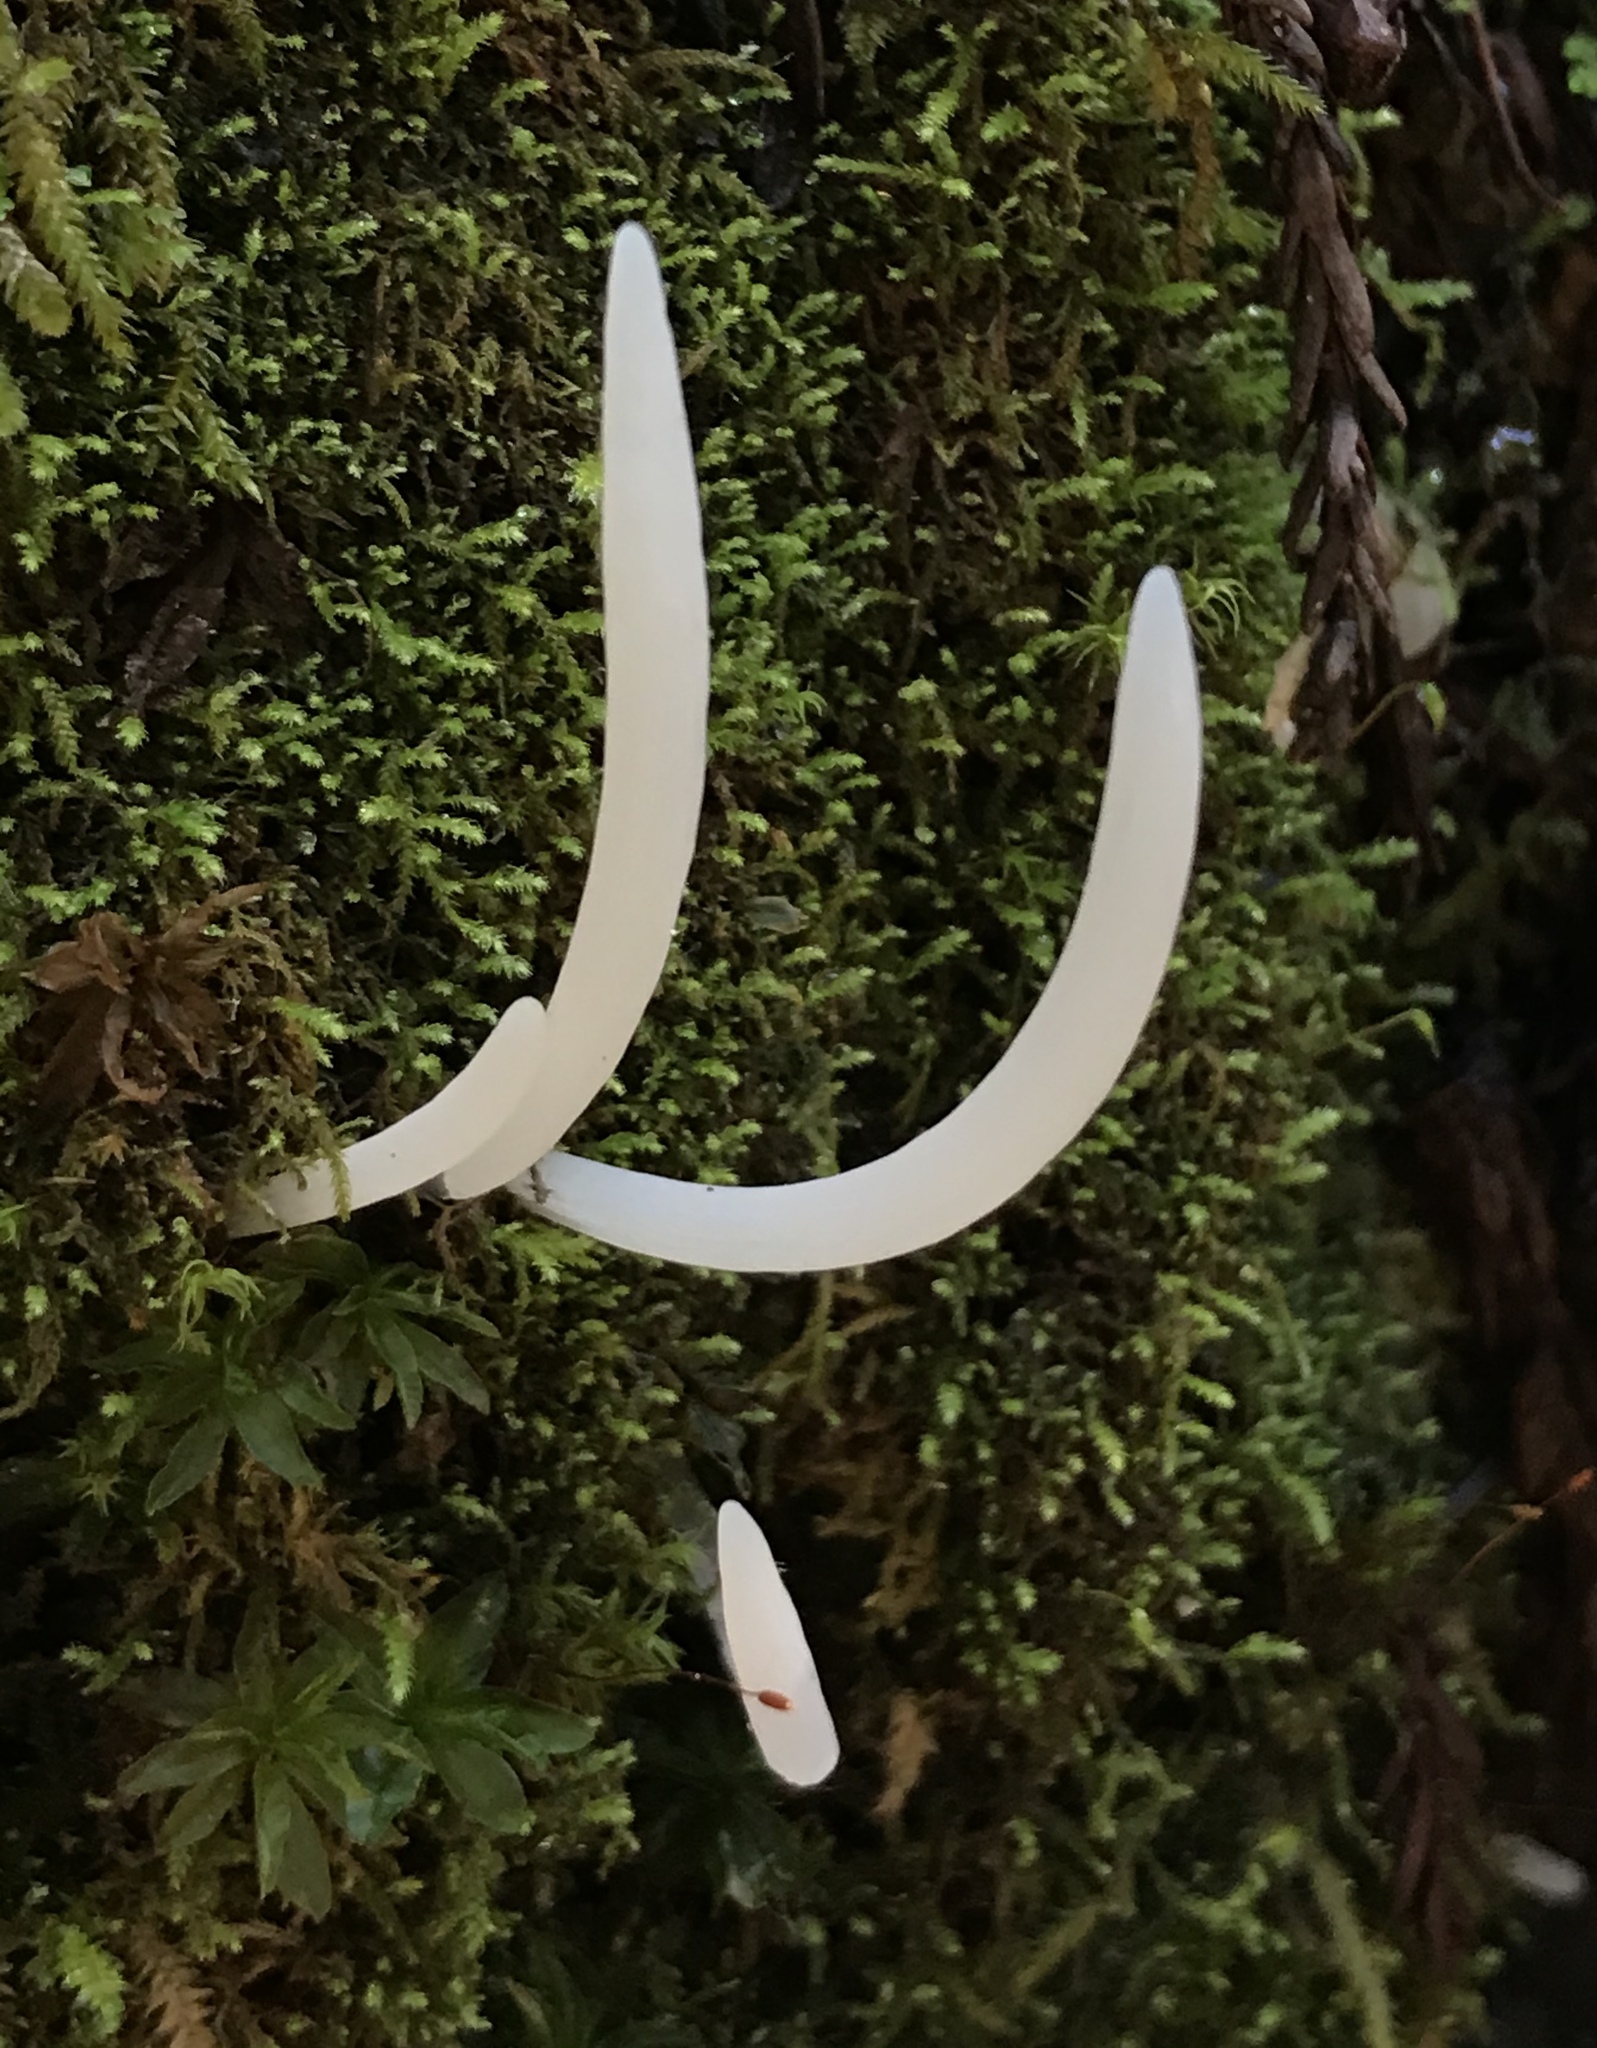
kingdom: Fungi
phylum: Basidiomycota
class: Agaricomycetes
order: Agaricales
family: Clavariaceae
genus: Clavaria
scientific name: Clavaria fragilis
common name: White spindles
